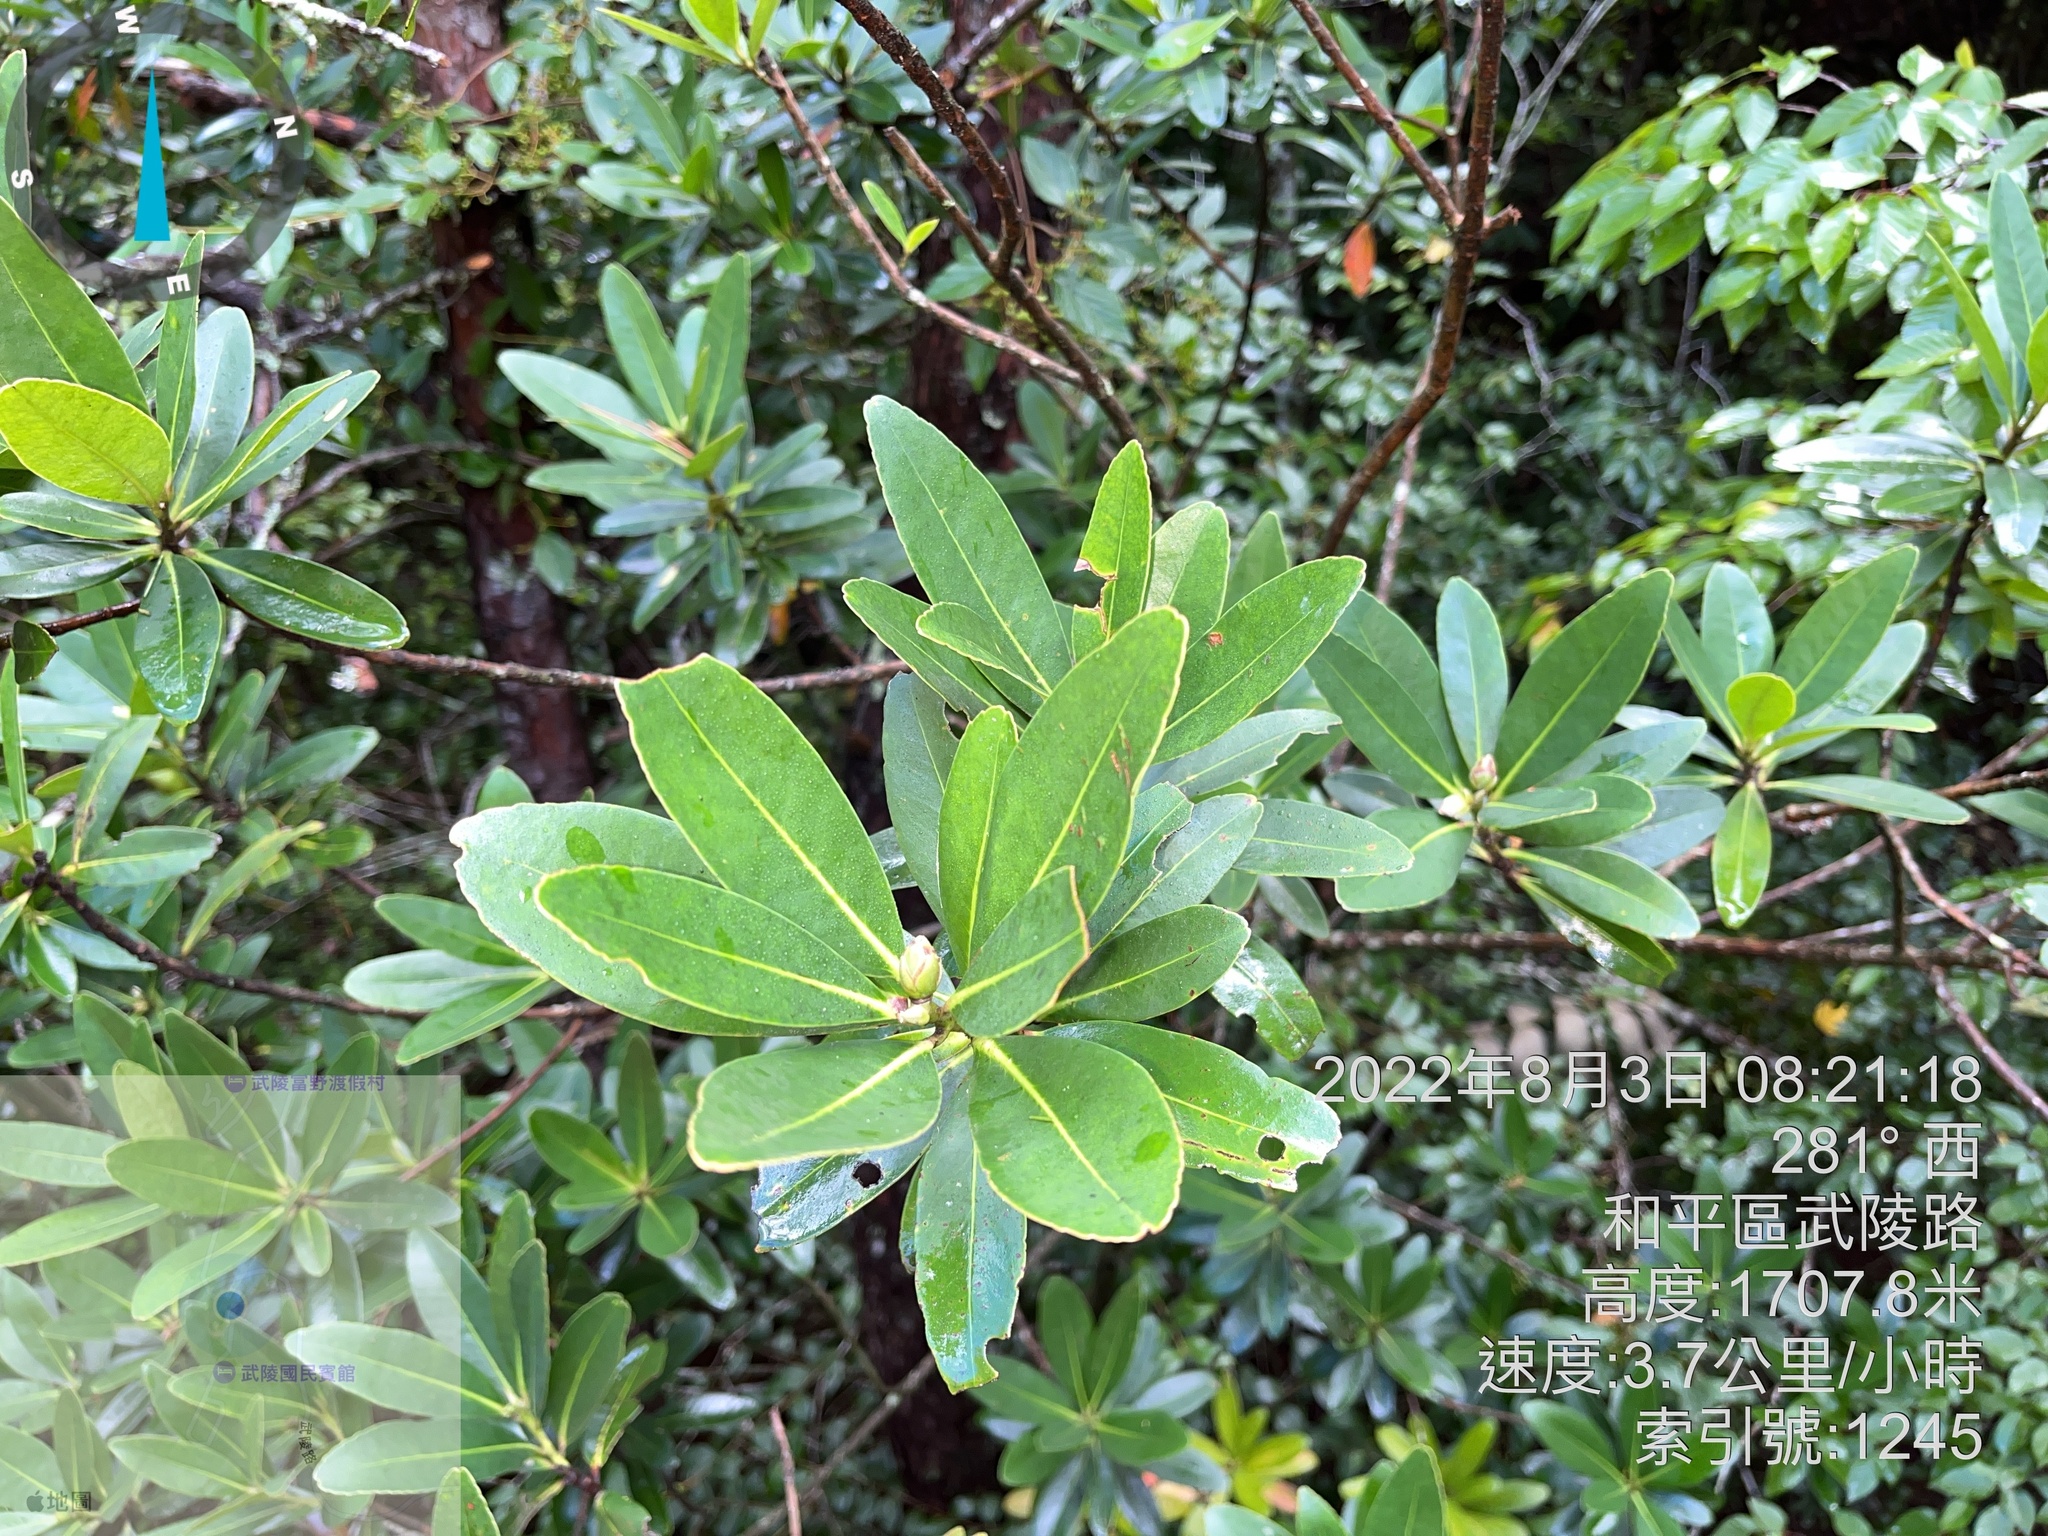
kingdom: Plantae
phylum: Tracheophyta
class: Magnoliopsida
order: Ericales
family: Theaceae
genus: Polyspora
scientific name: Polyspora axillaris
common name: Fried egg tree
